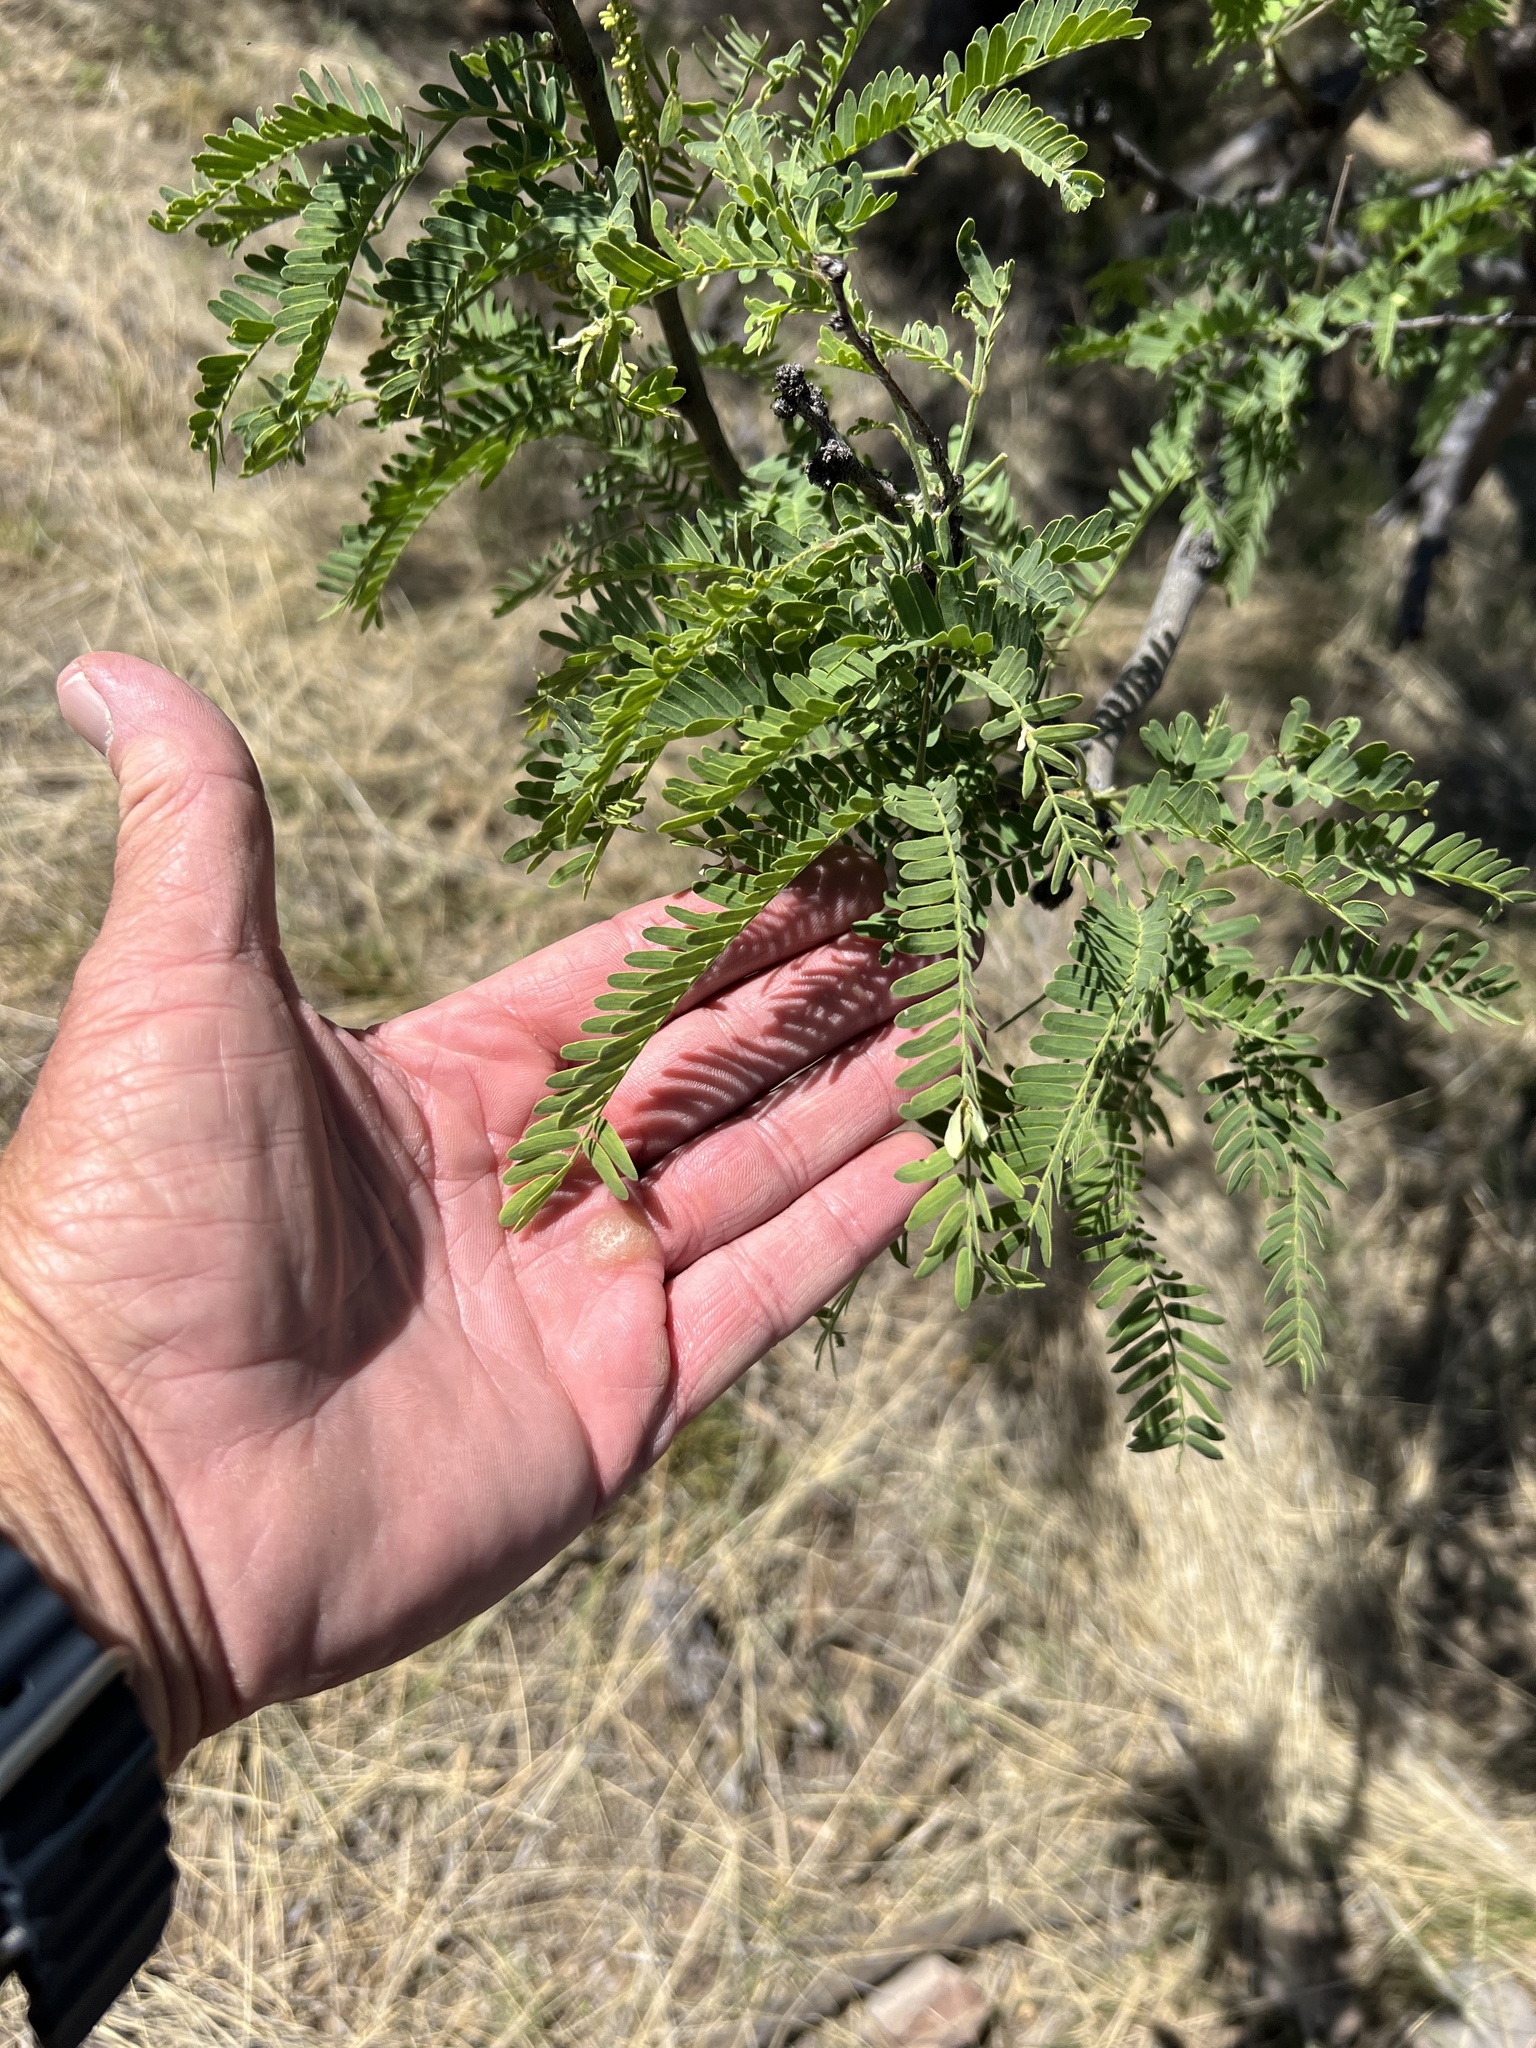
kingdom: Plantae
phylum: Tracheophyta
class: Magnoliopsida
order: Fabales
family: Fabaceae
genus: Prosopis
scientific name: Prosopis velutina
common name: Velvet mesquite
